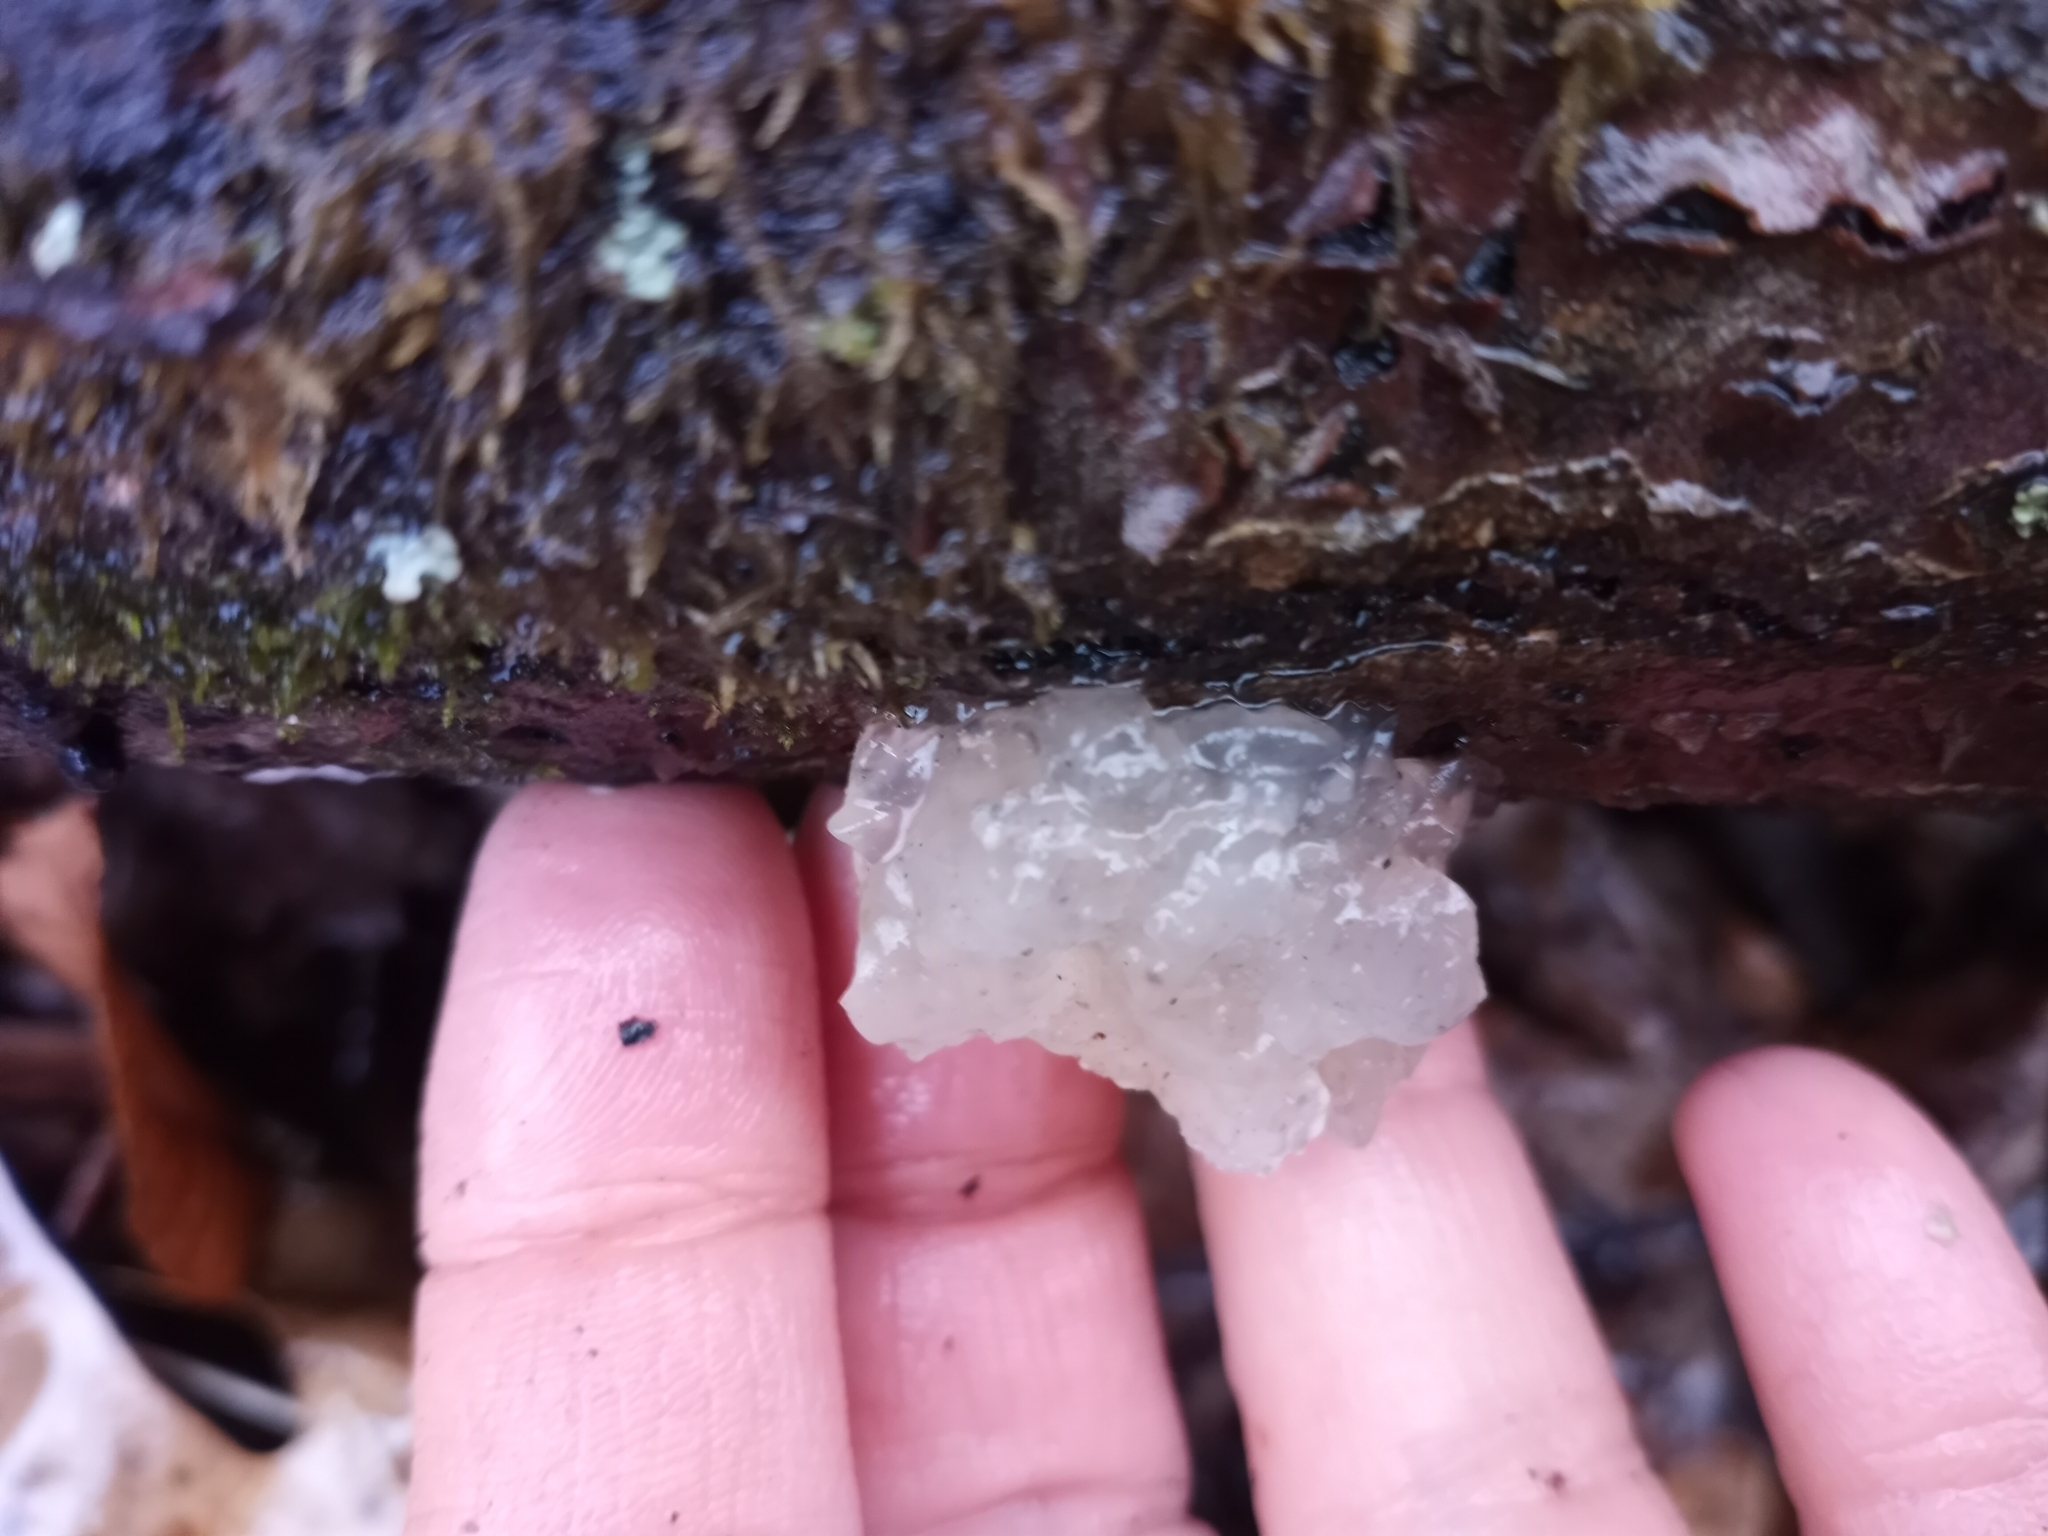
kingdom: Fungi
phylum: Basidiomycota
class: Tremellomycetes
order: Tremellales
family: Tremellaceae
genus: Tremella
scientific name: Tremella fuciformis
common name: Snow fungus
